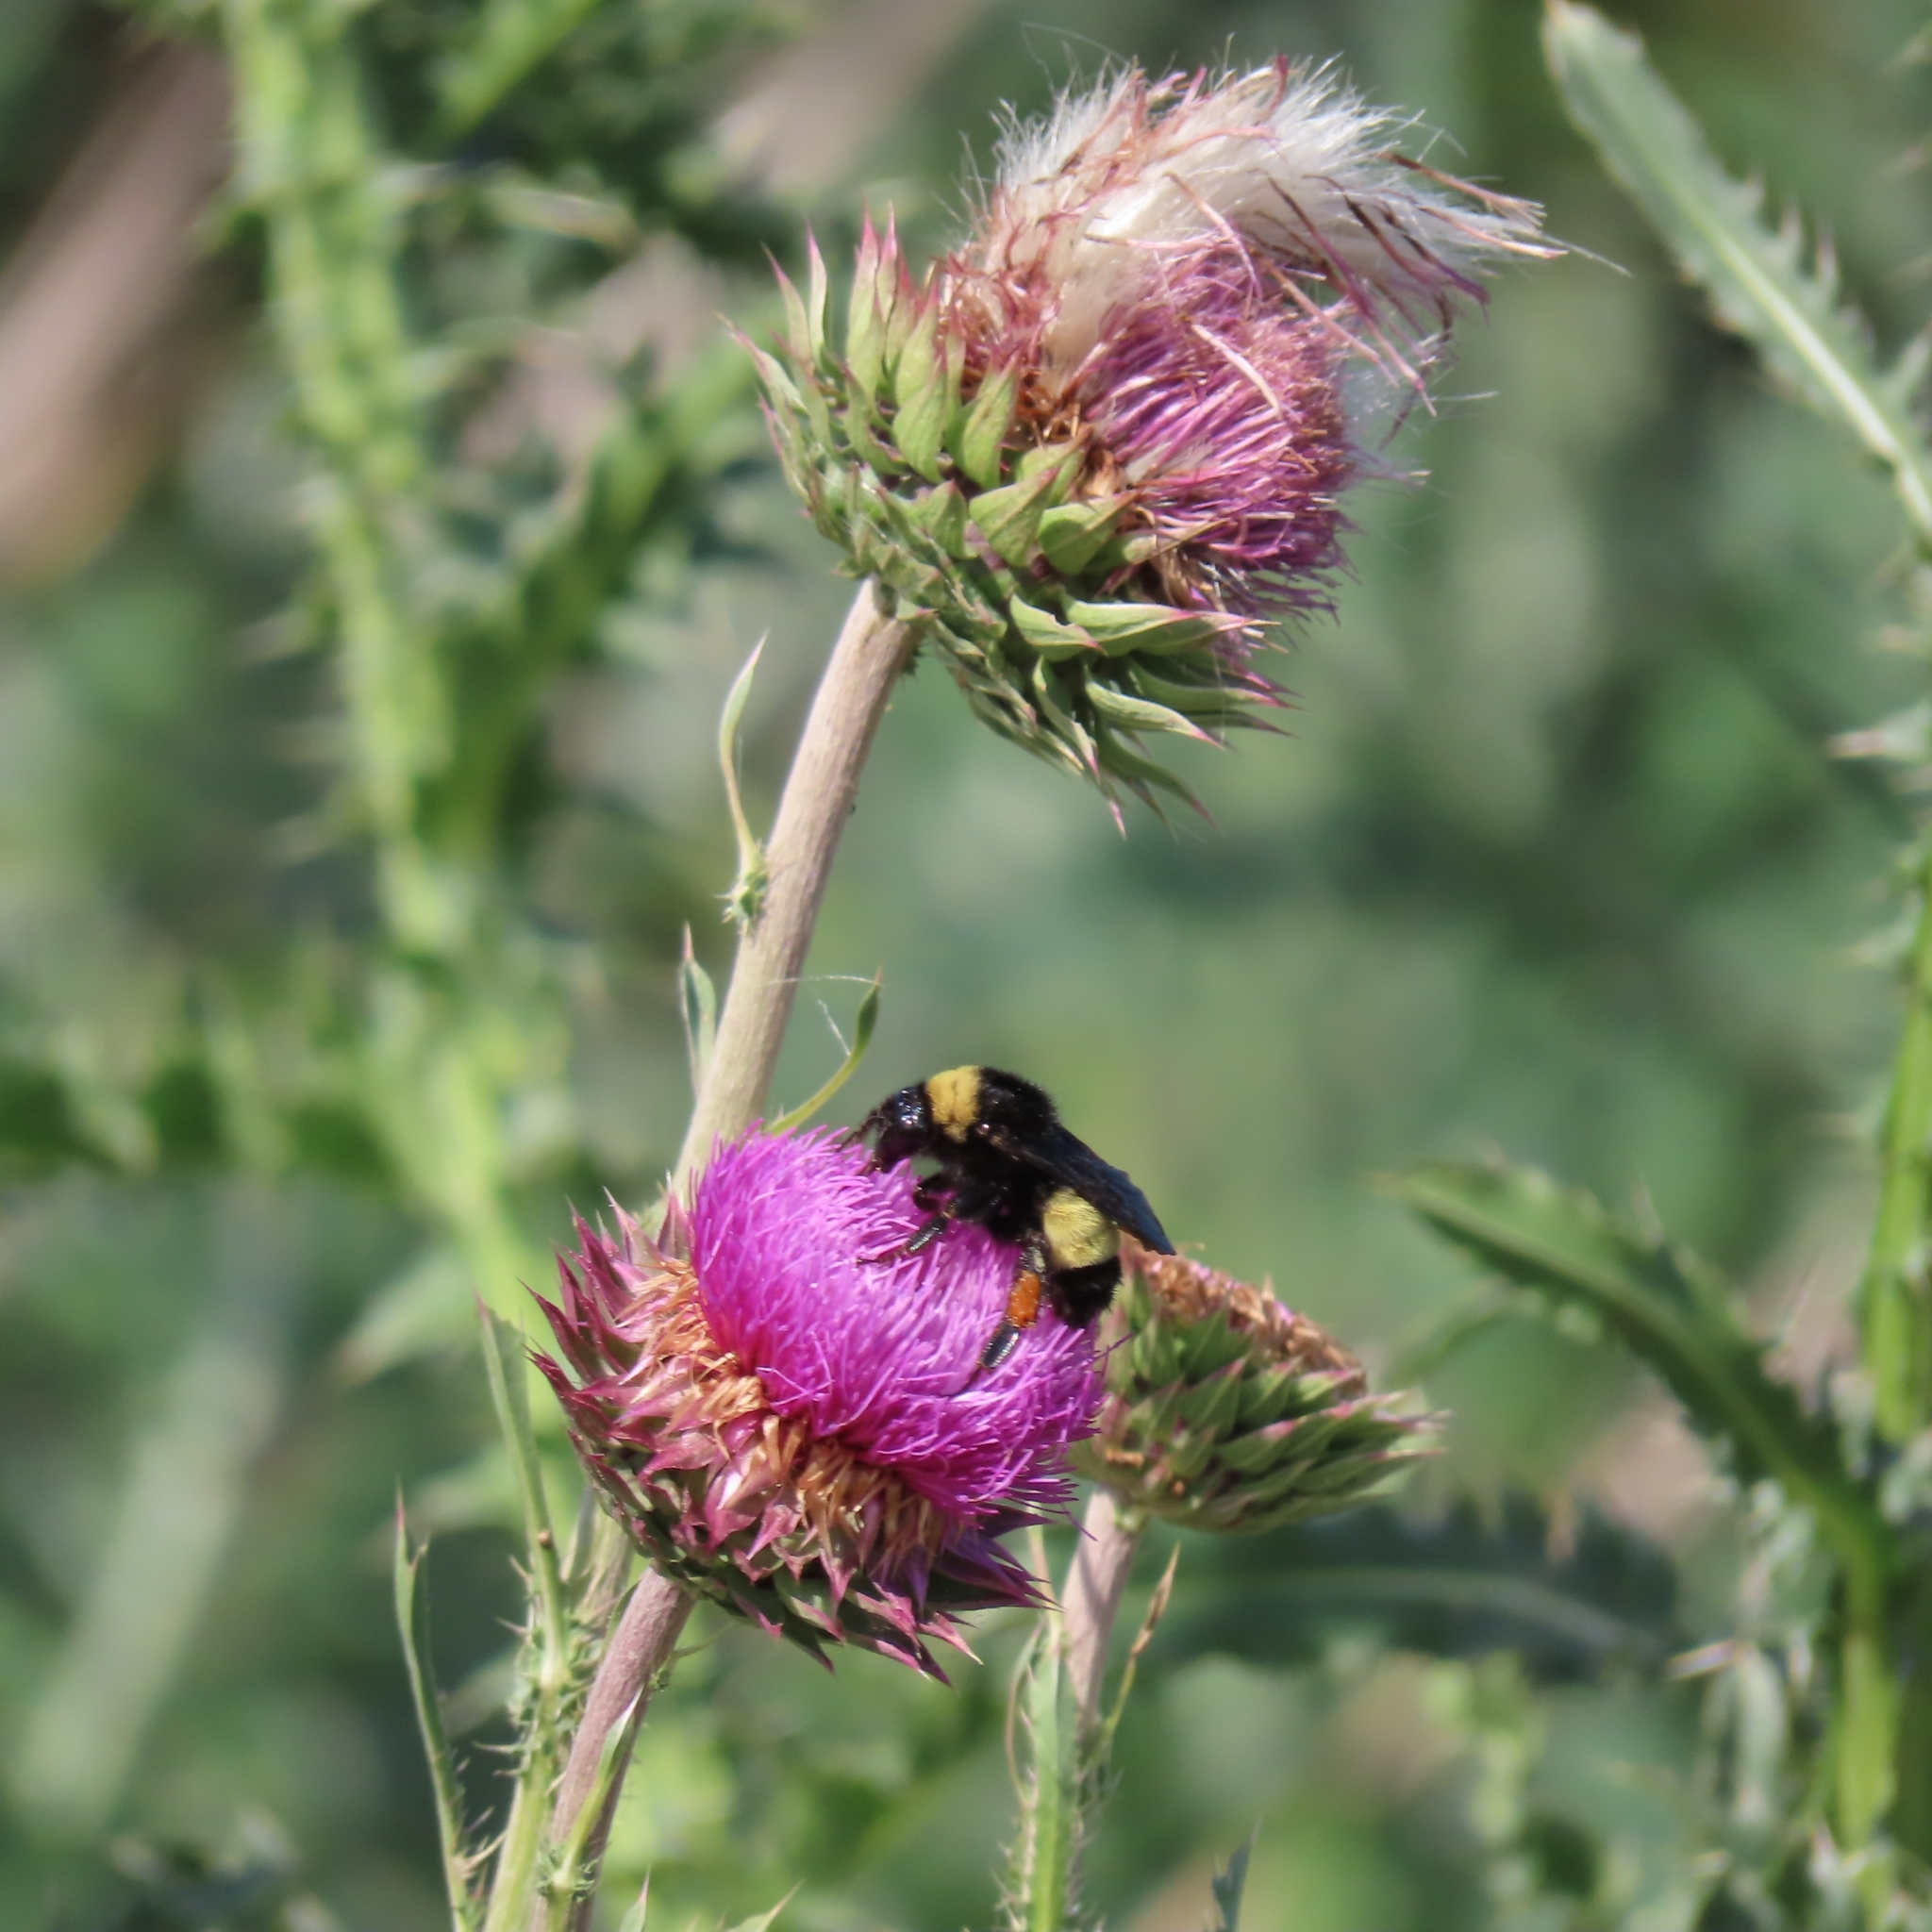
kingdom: Animalia
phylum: Arthropoda
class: Insecta
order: Hymenoptera
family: Apidae
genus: Bombus
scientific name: Bombus pensylvanicus
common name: Bumble bee
